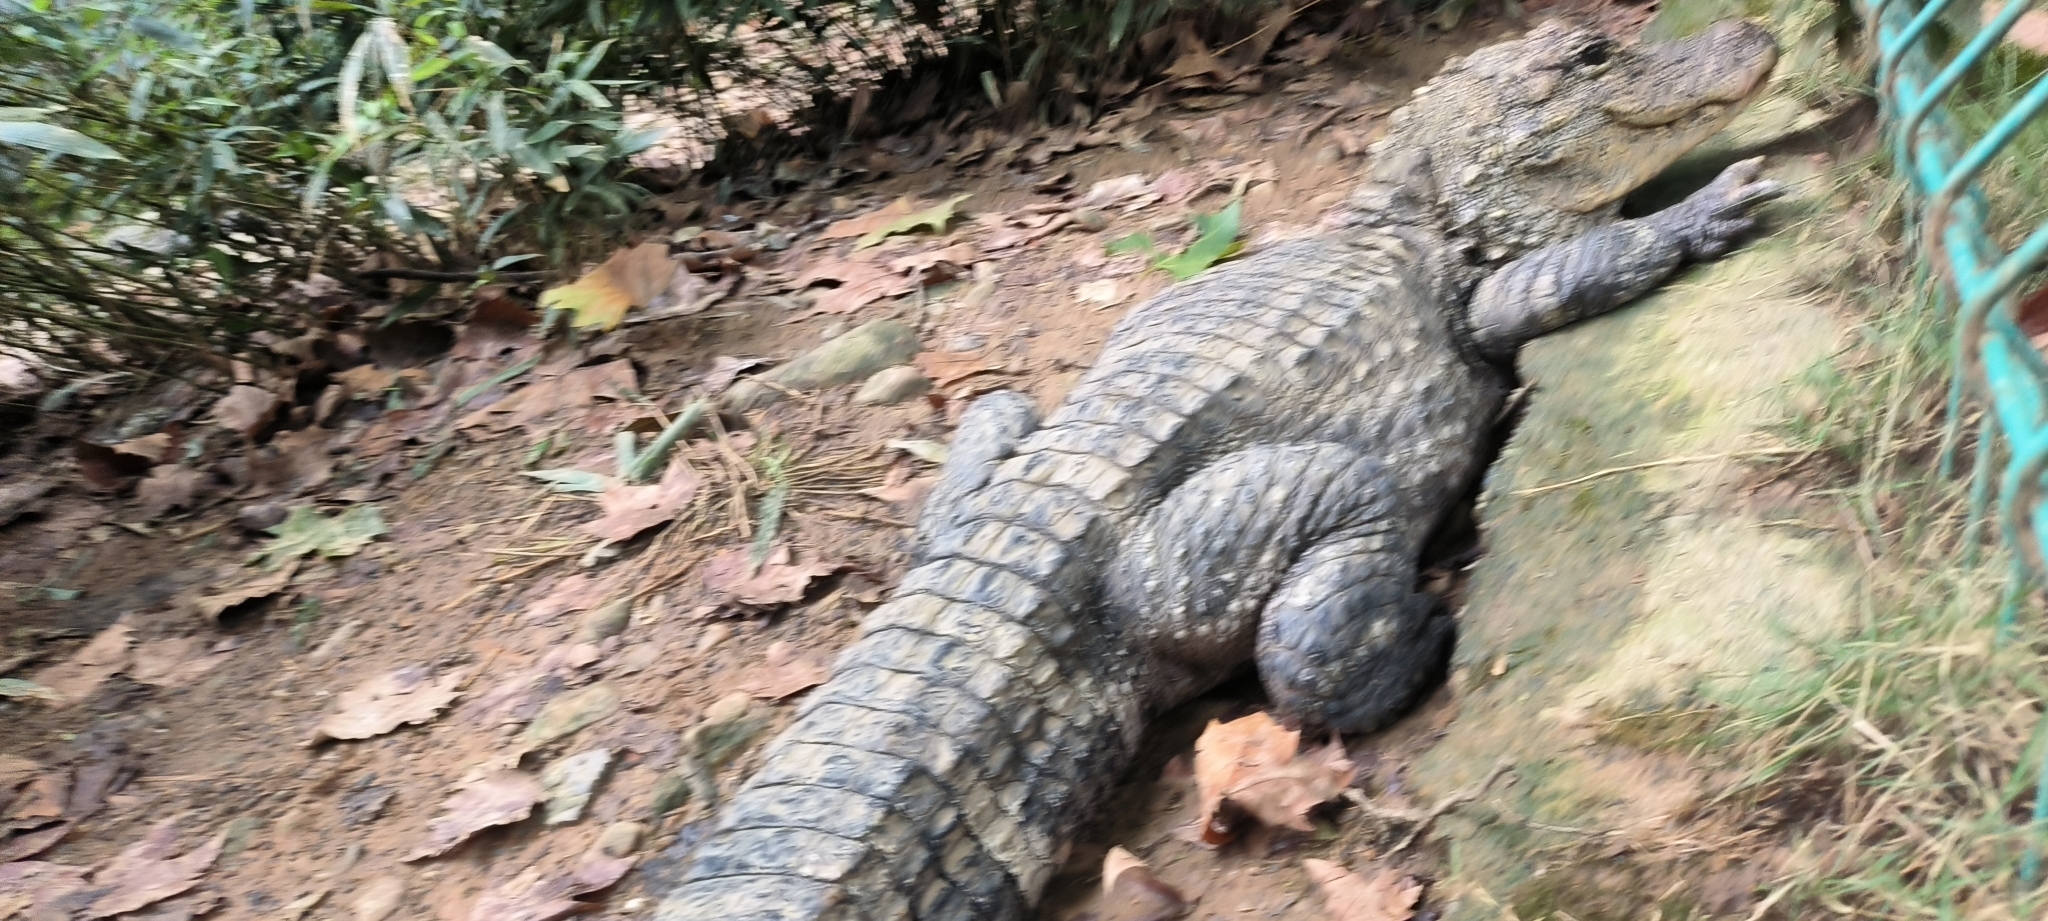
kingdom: Animalia
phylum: Chordata
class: Crocodylia
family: Alligatoridae
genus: Alligator
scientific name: Alligator sinensis
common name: Chinese alligator
